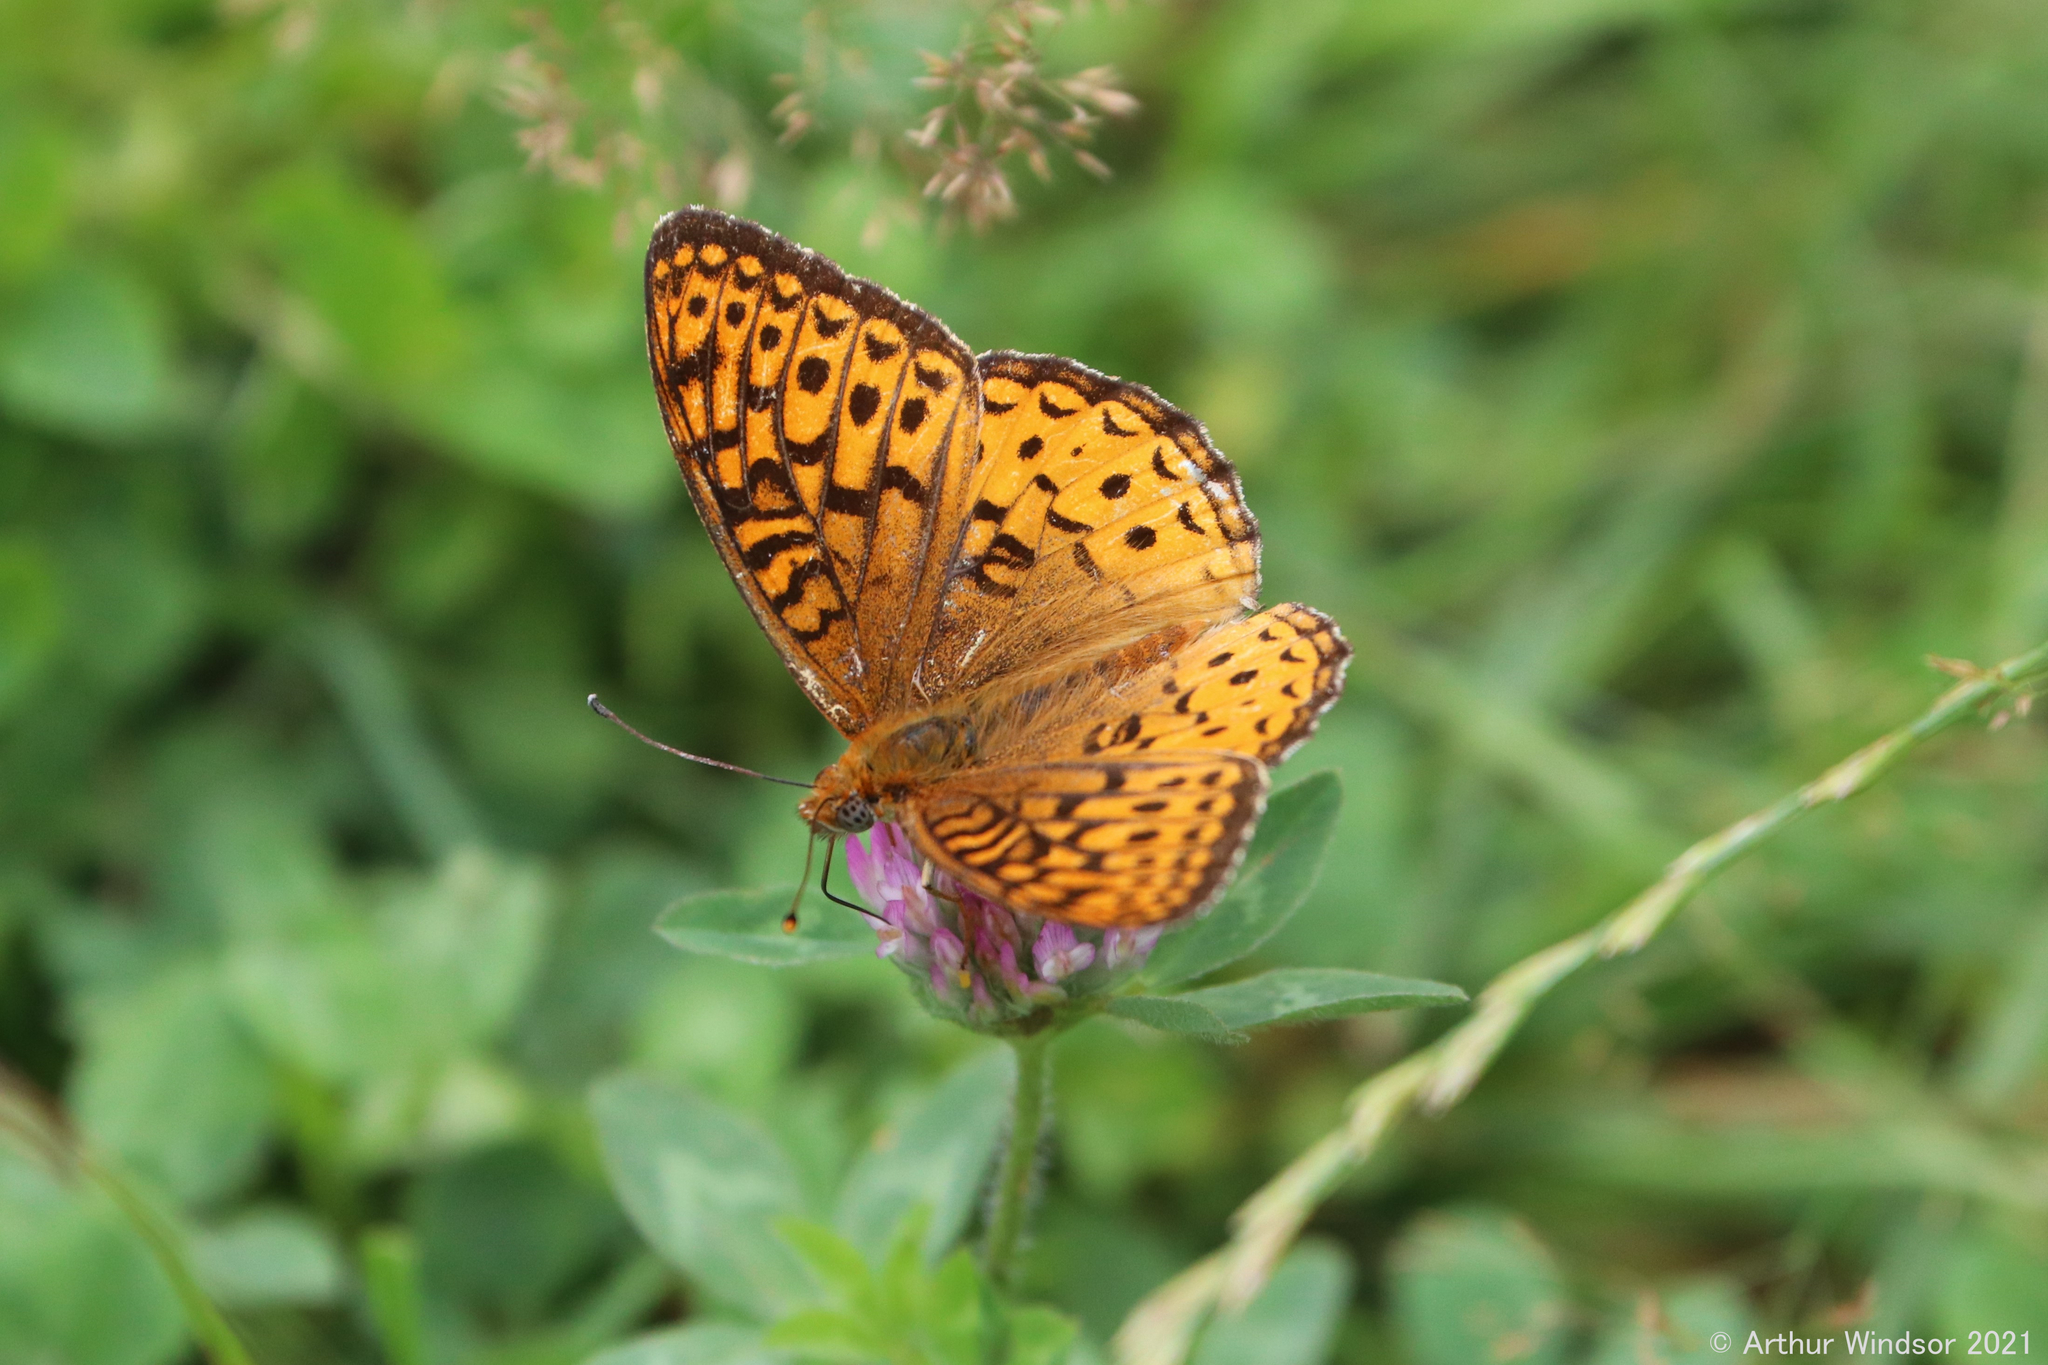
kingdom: Animalia
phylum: Arthropoda
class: Insecta
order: Lepidoptera
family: Nymphalidae
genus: Speyeria
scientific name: Speyeria atlantis
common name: Atlantis fritillary
